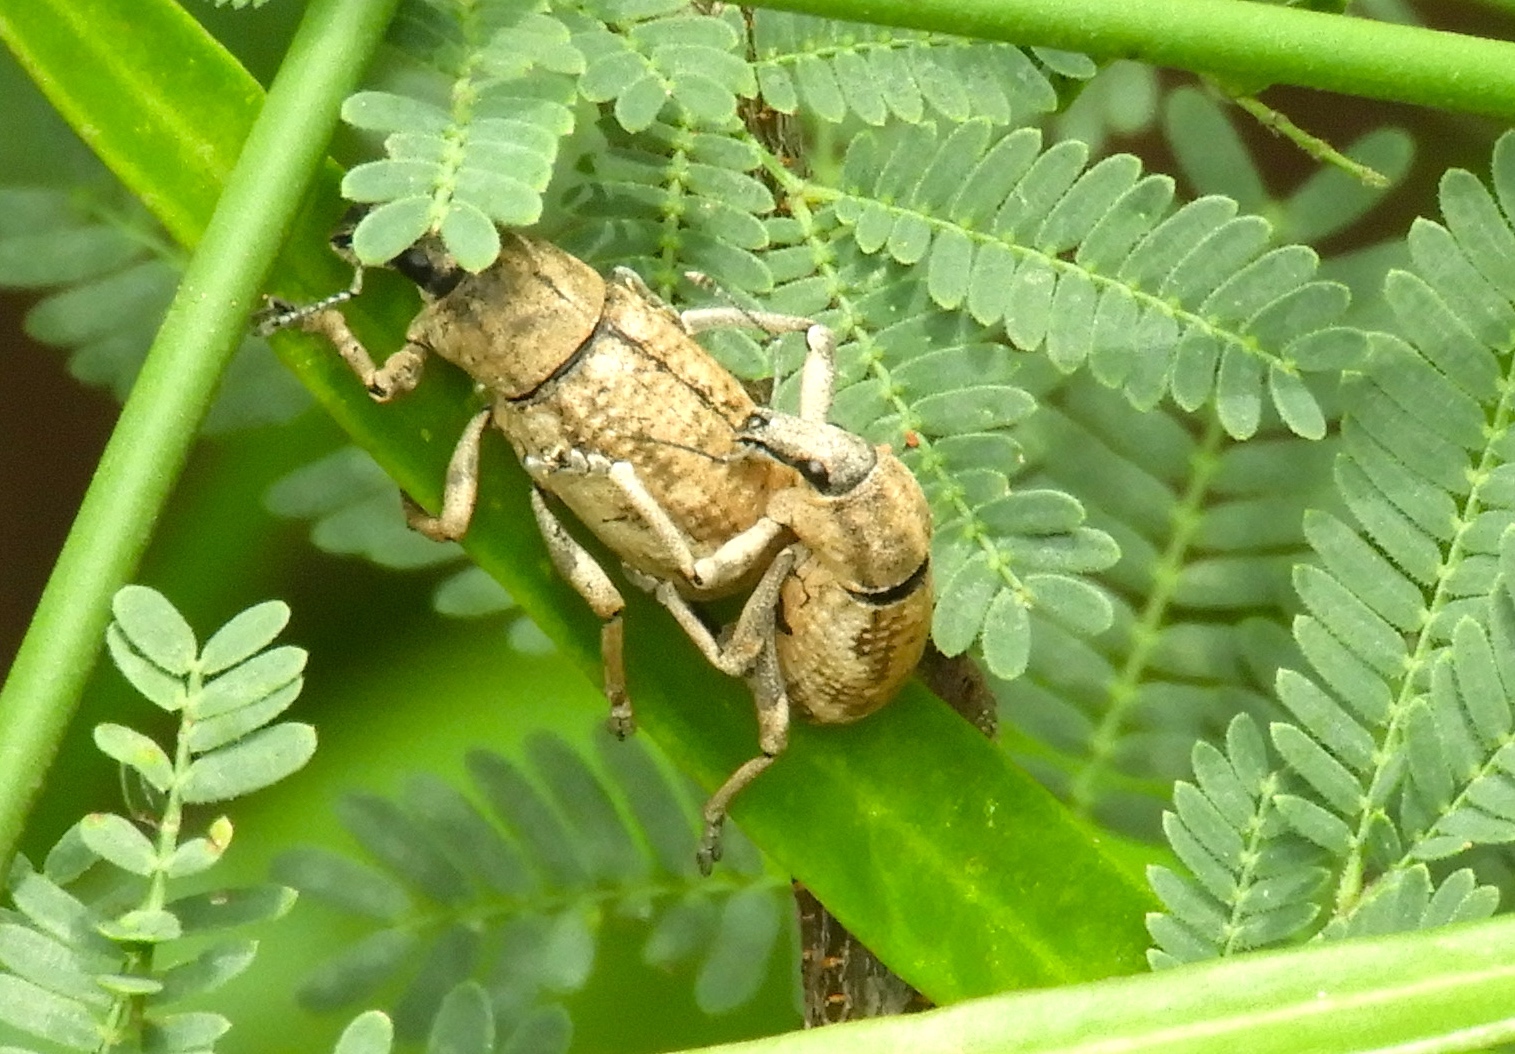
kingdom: Animalia
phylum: Arthropoda
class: Insecta
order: Coleoptera
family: Curculionidae
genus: Epicaerus
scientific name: Epicaerus
